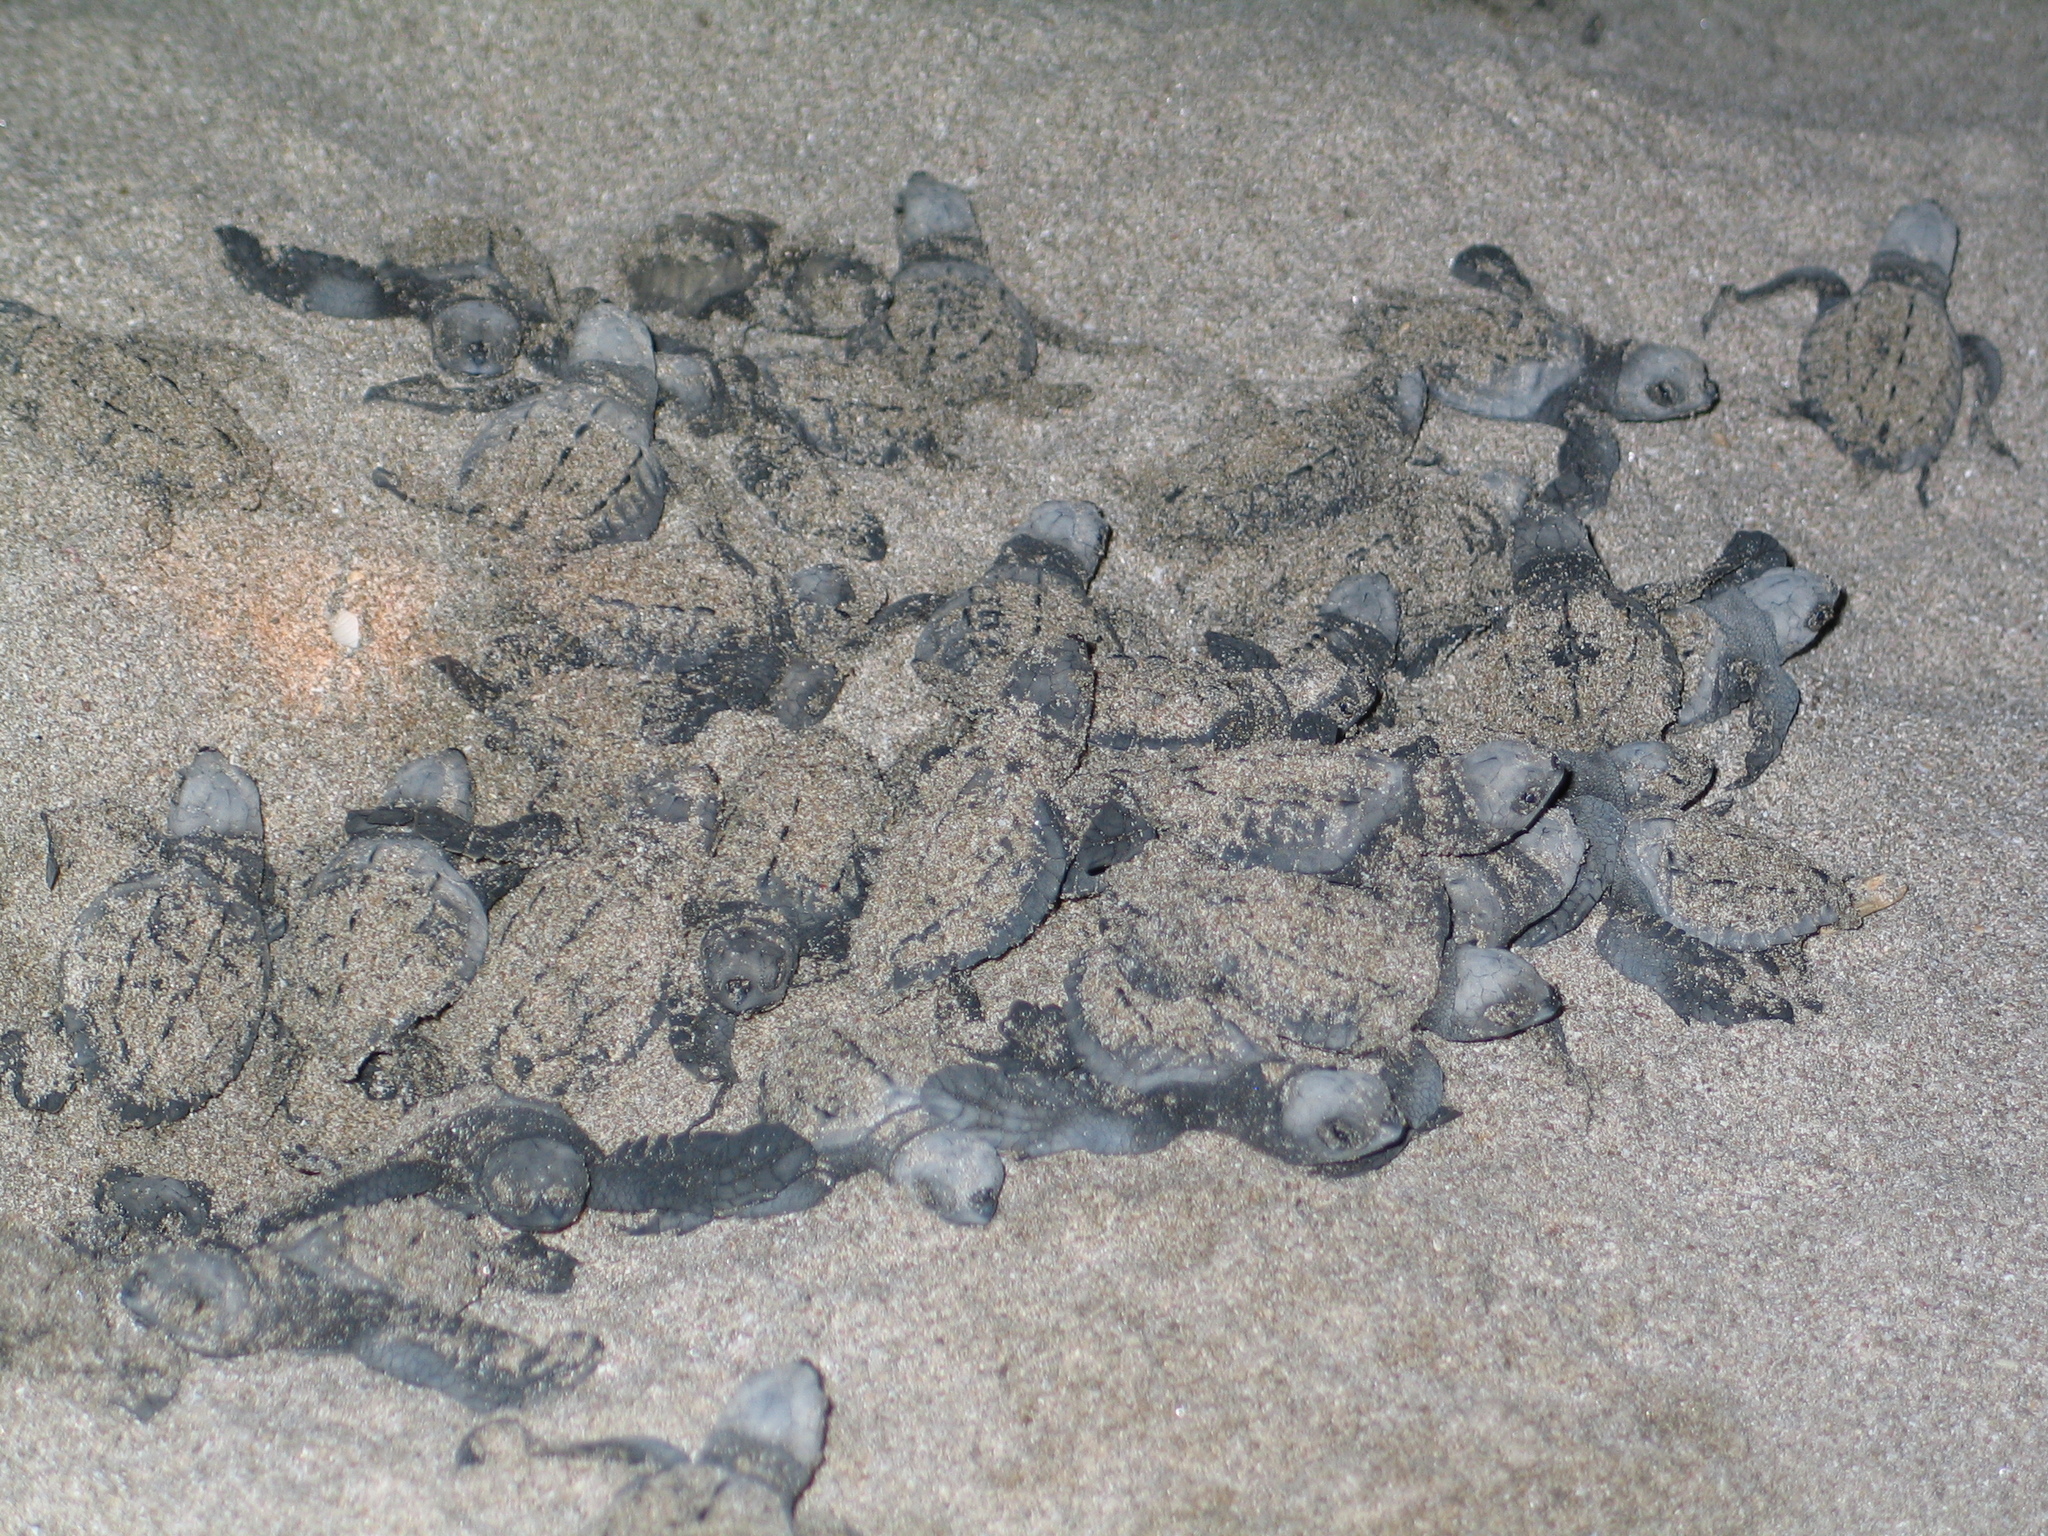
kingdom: Animalia
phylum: Chordata
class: Testudines
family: Cheloniidae
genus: Lepidochelys
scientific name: Lepidochelys olivacea
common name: Olive ridley
